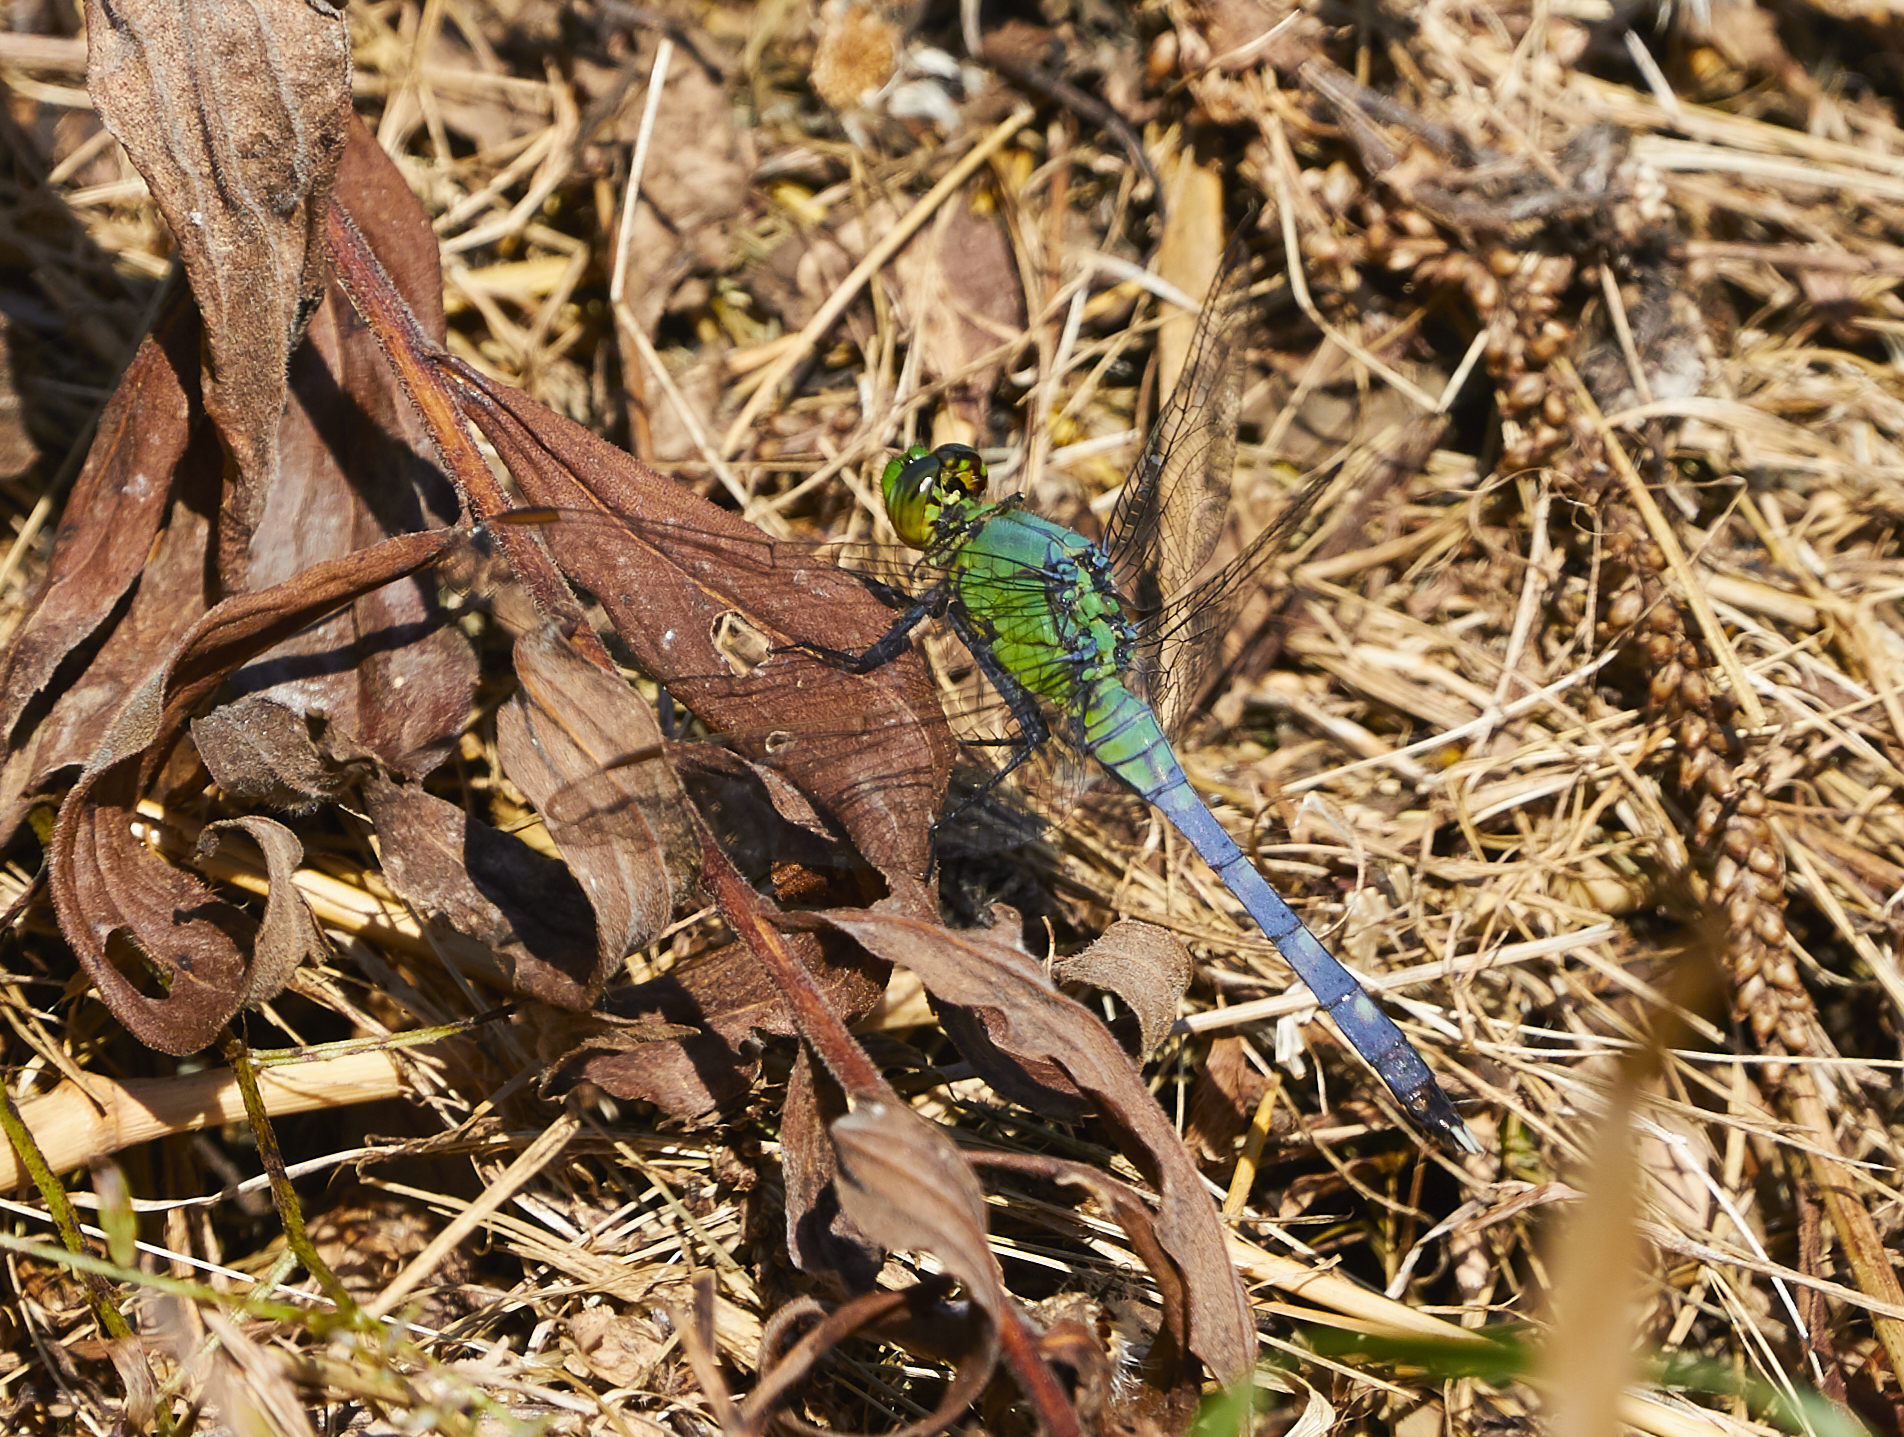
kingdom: Animalia
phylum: Arthropoda
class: Insecta
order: Odonata
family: Libellulidae
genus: Erythemis
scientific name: Erythemis simplicicollis
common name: Eastern pondhawk
